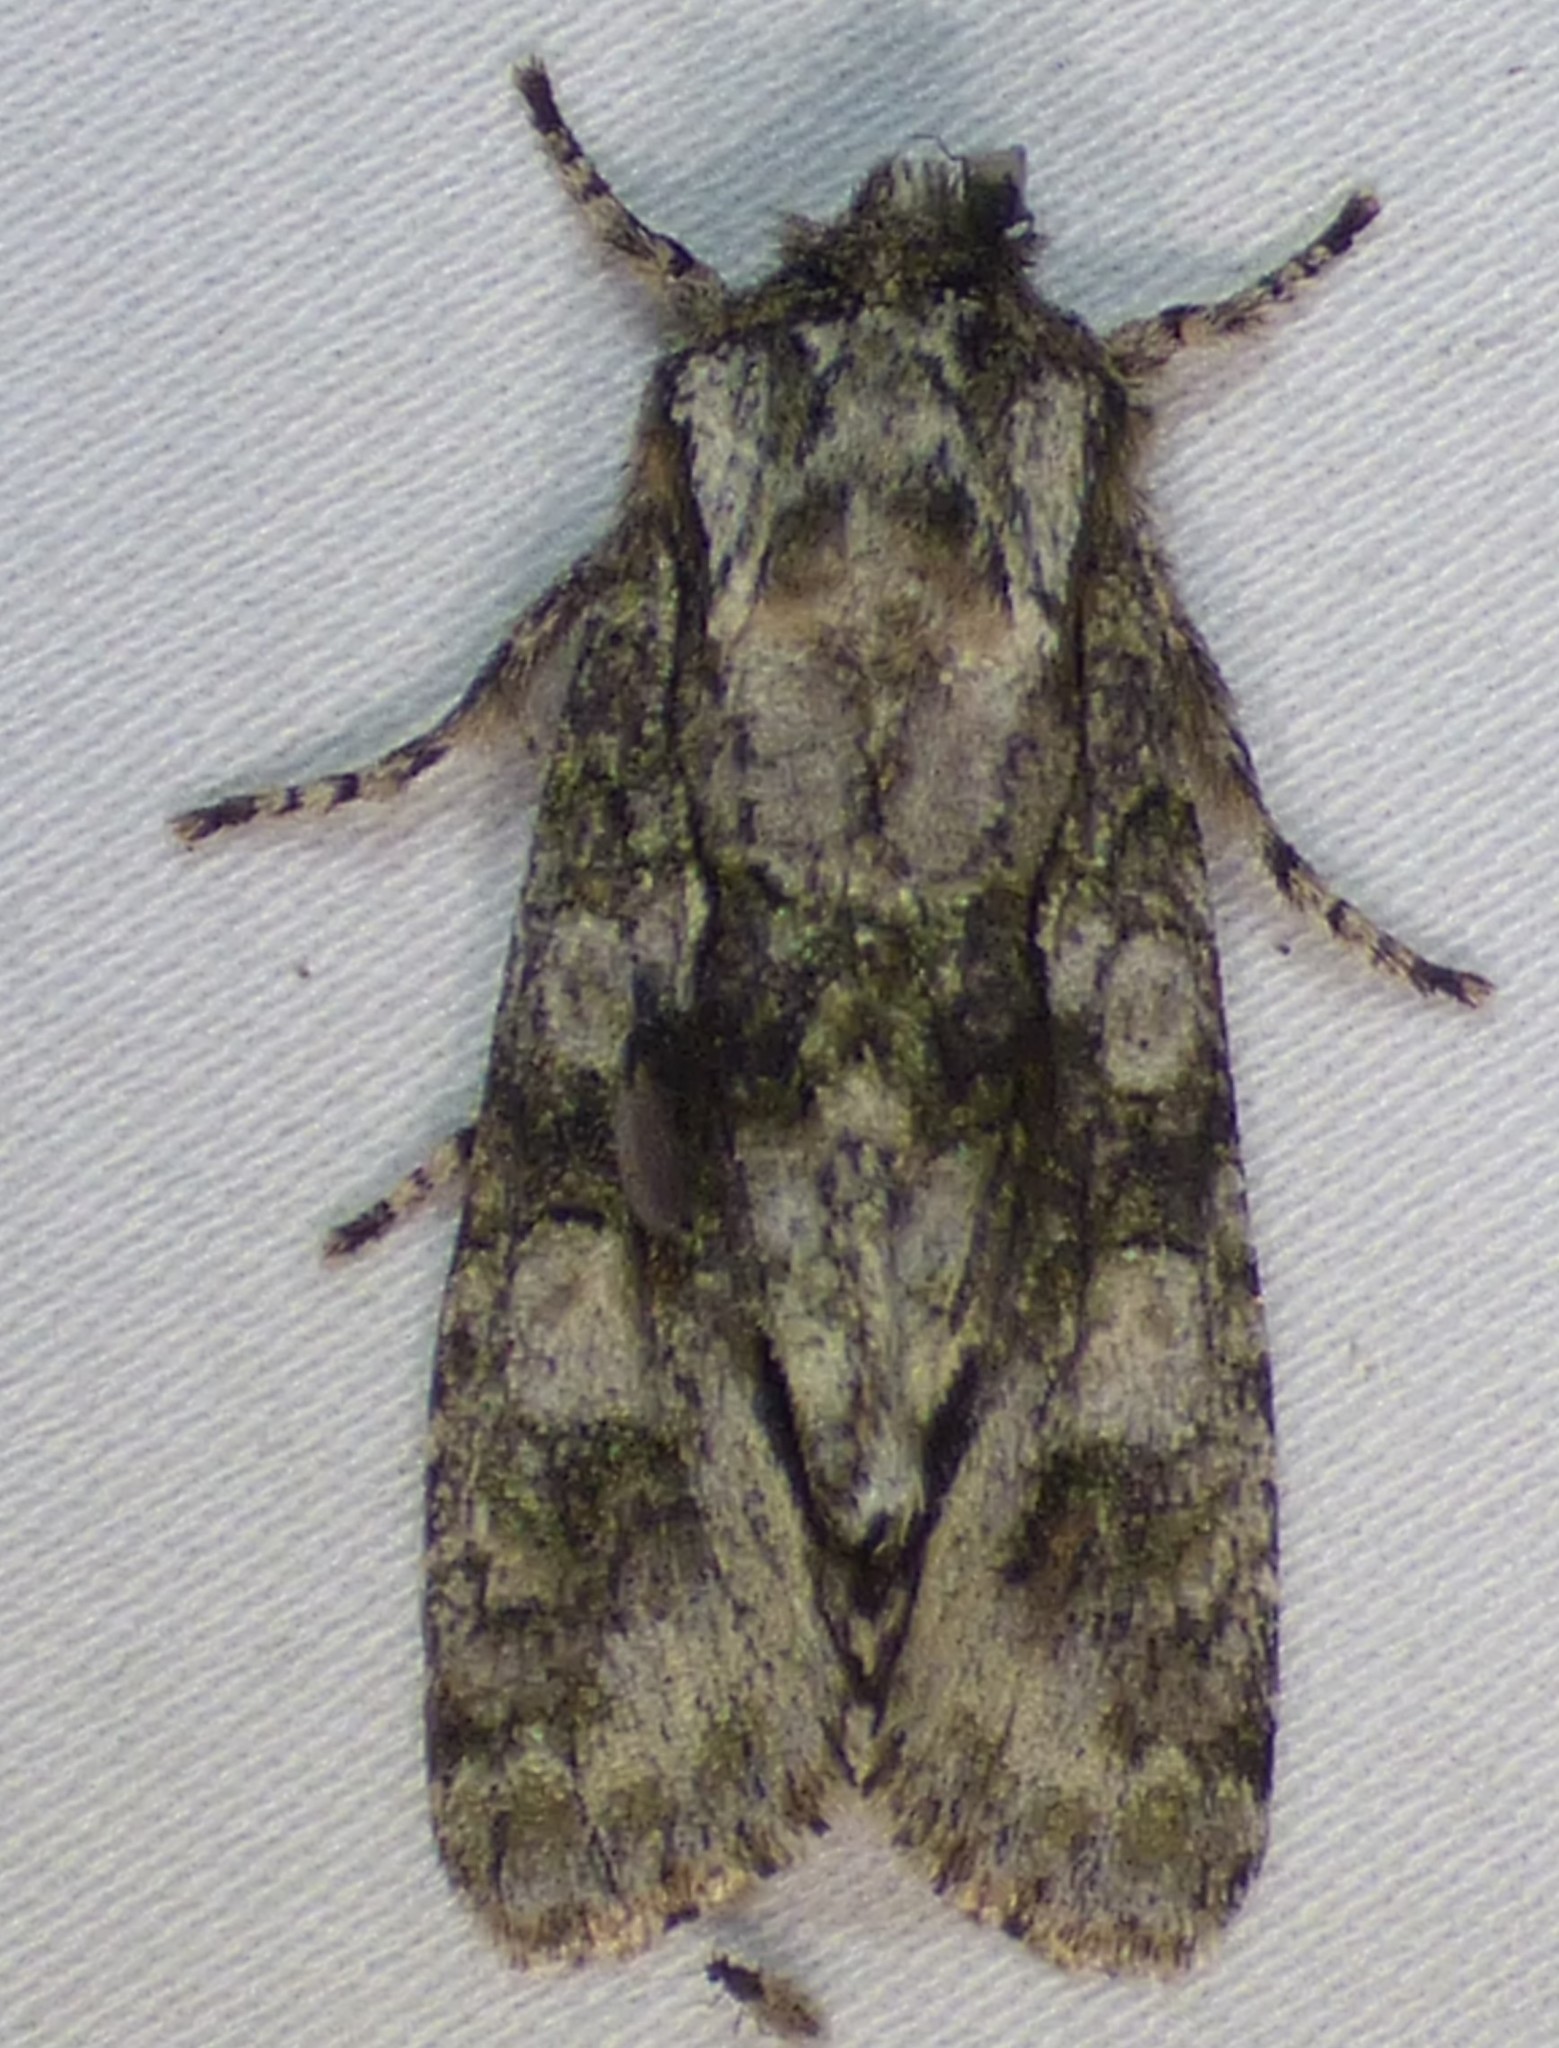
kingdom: Animalia
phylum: Arthropoda
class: Insecta
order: Lepidoptera
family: Noctuidae
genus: Psaphida
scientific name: Psaphida resumens
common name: Figure-eight sallow
